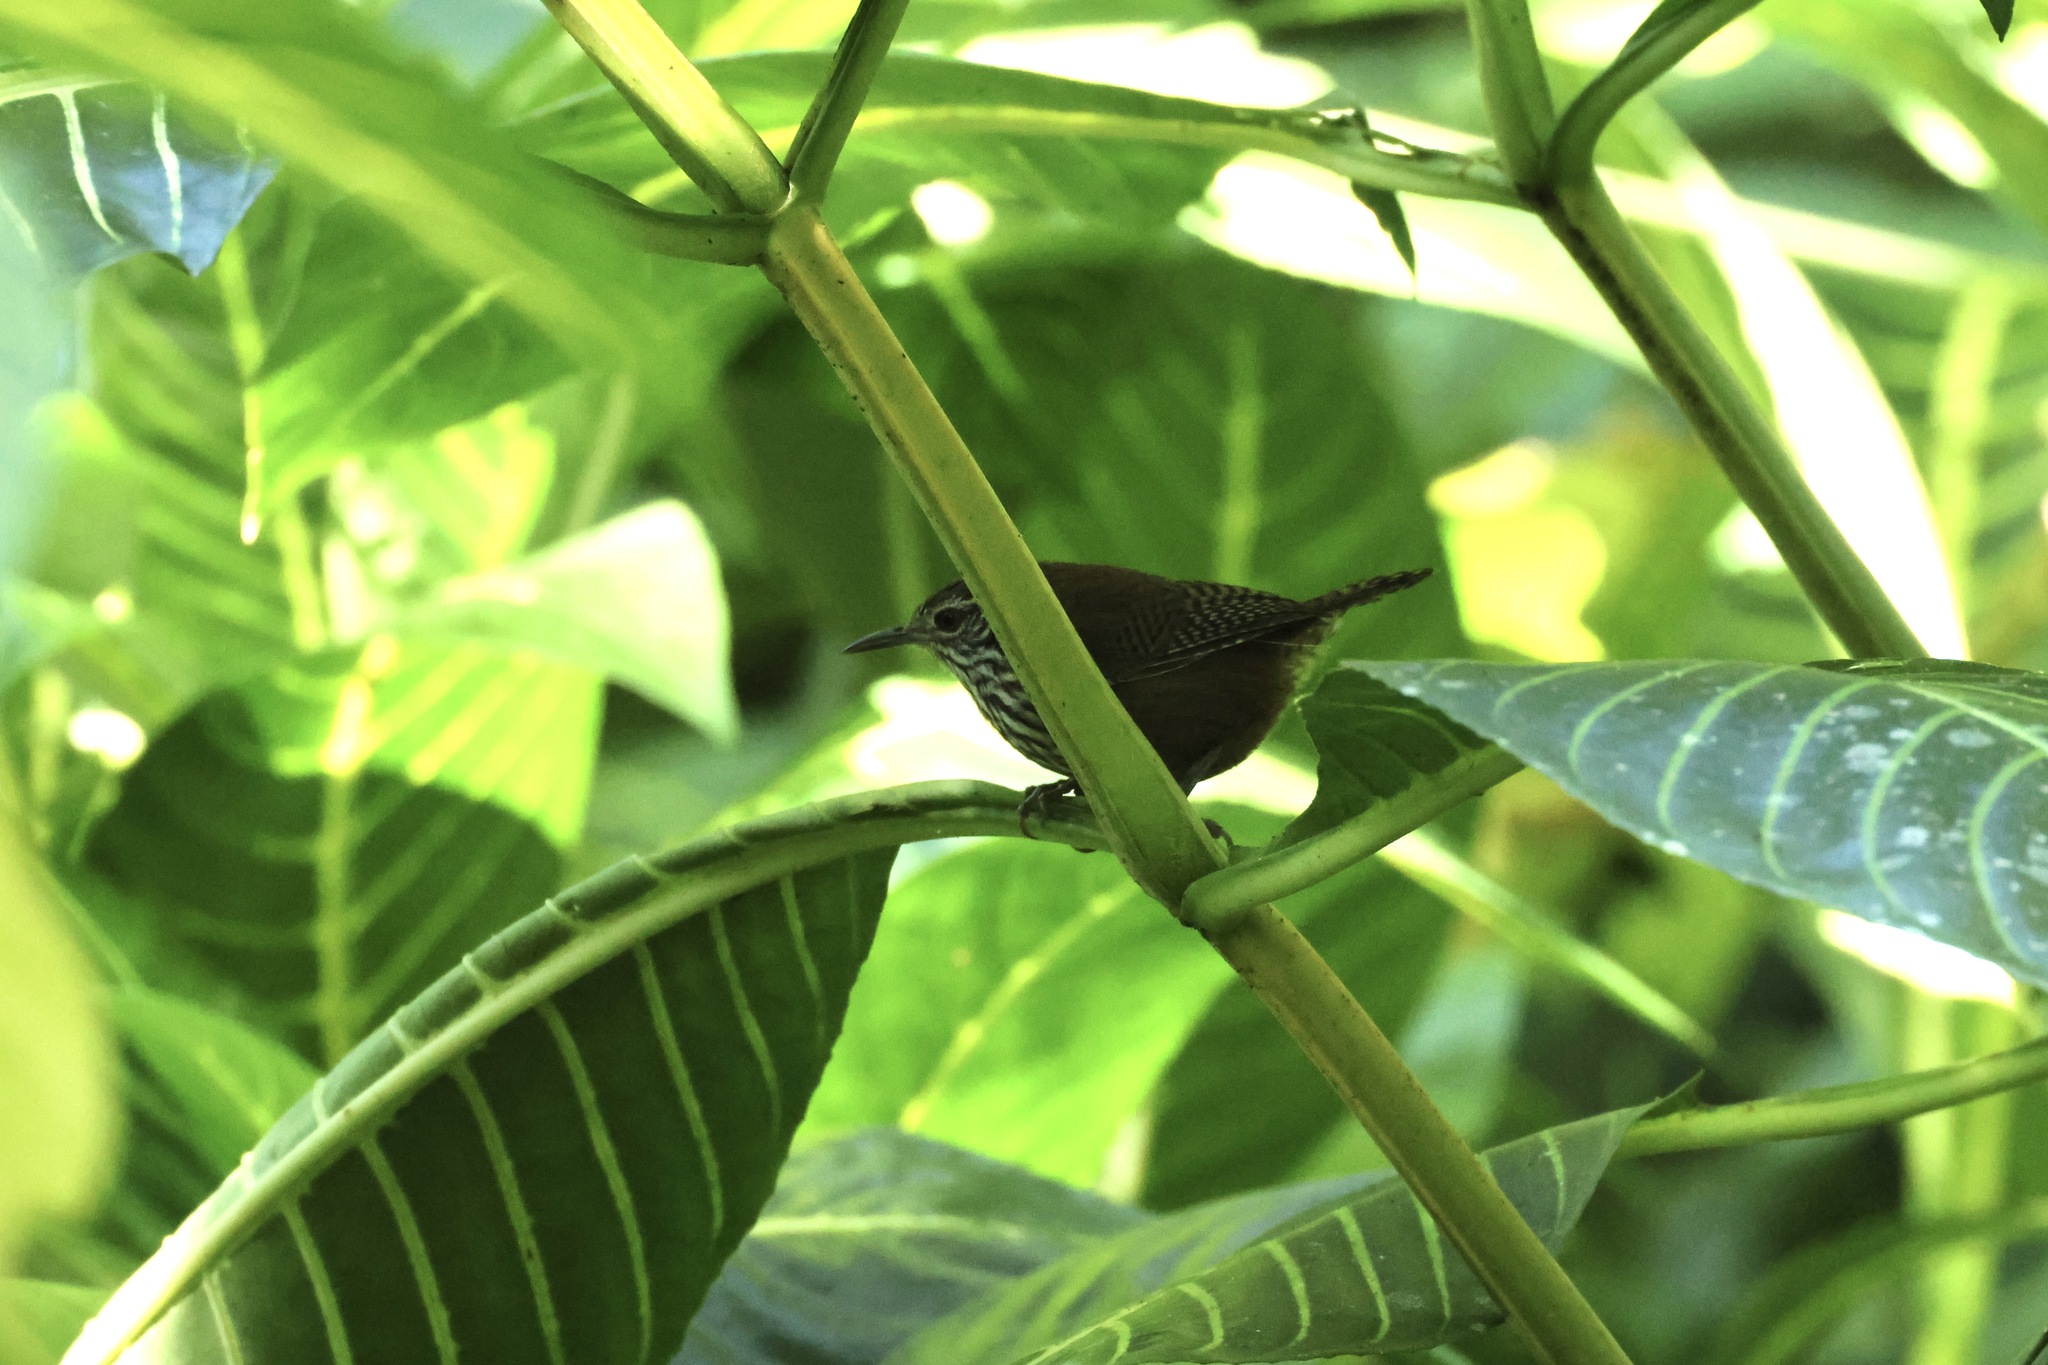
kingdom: Animalia
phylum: Chordata
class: Aves
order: Passeriformes
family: Troglodytidae
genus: Cantorchilus
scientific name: Cantorchilus thoracicus
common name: Stripe-breasted wren
